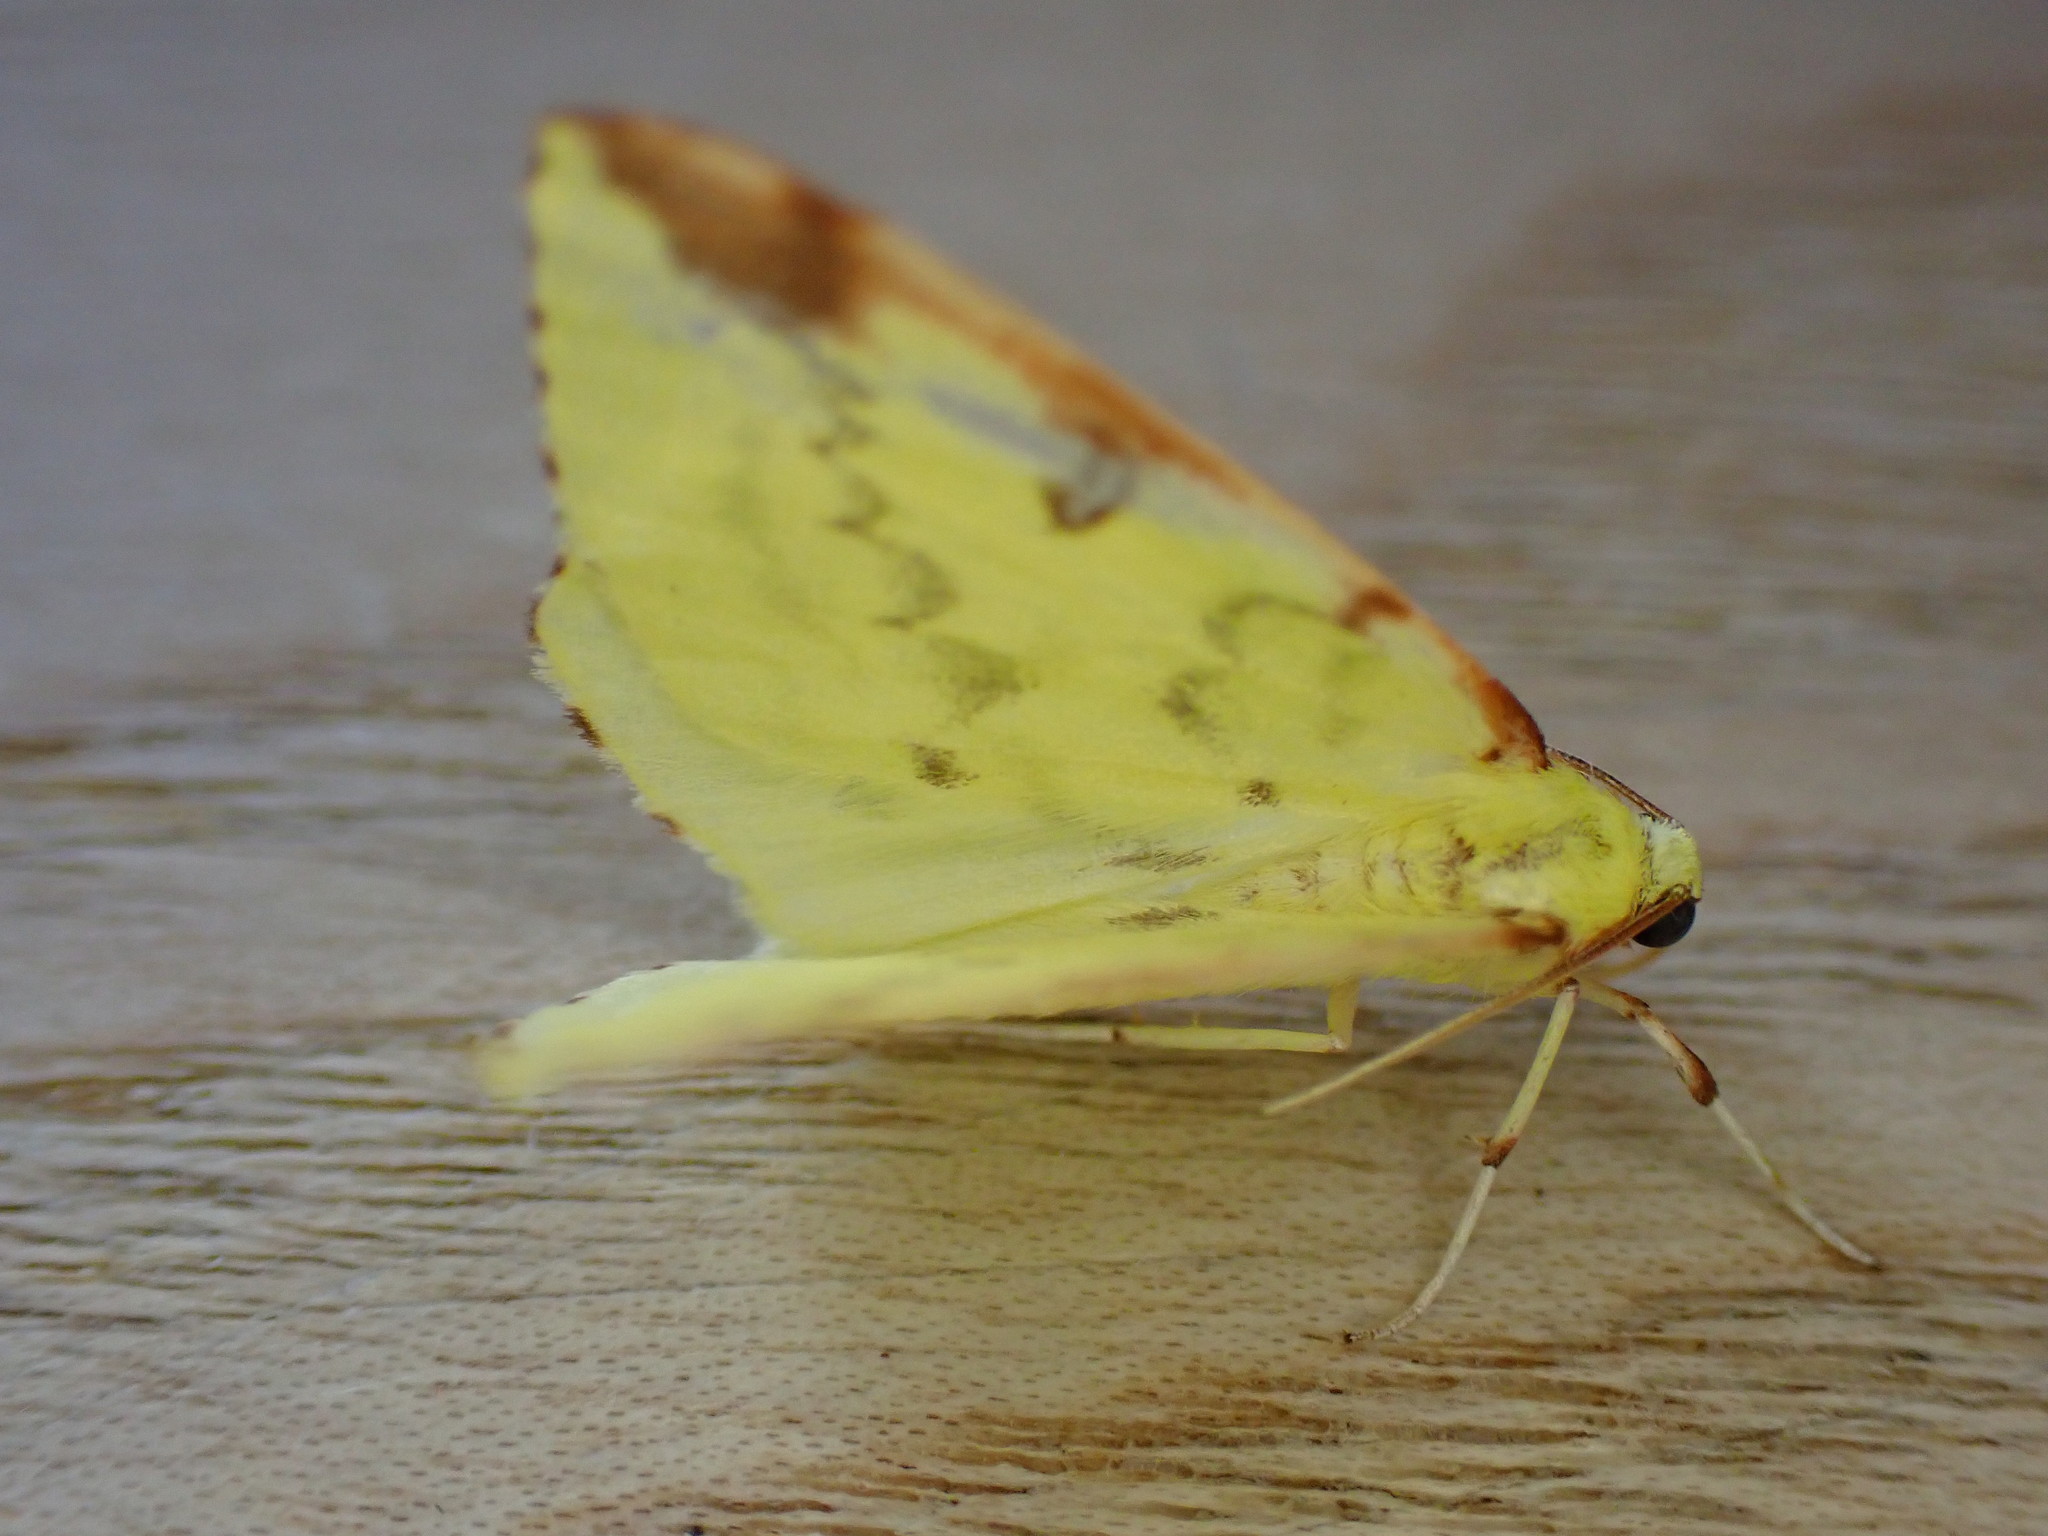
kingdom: Animalia
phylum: Arthropoda
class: Insecta
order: Lepidoptera
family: Geometridae
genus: Opisthograptis
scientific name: Opisthograptis luteolata
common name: Brimstone moth
